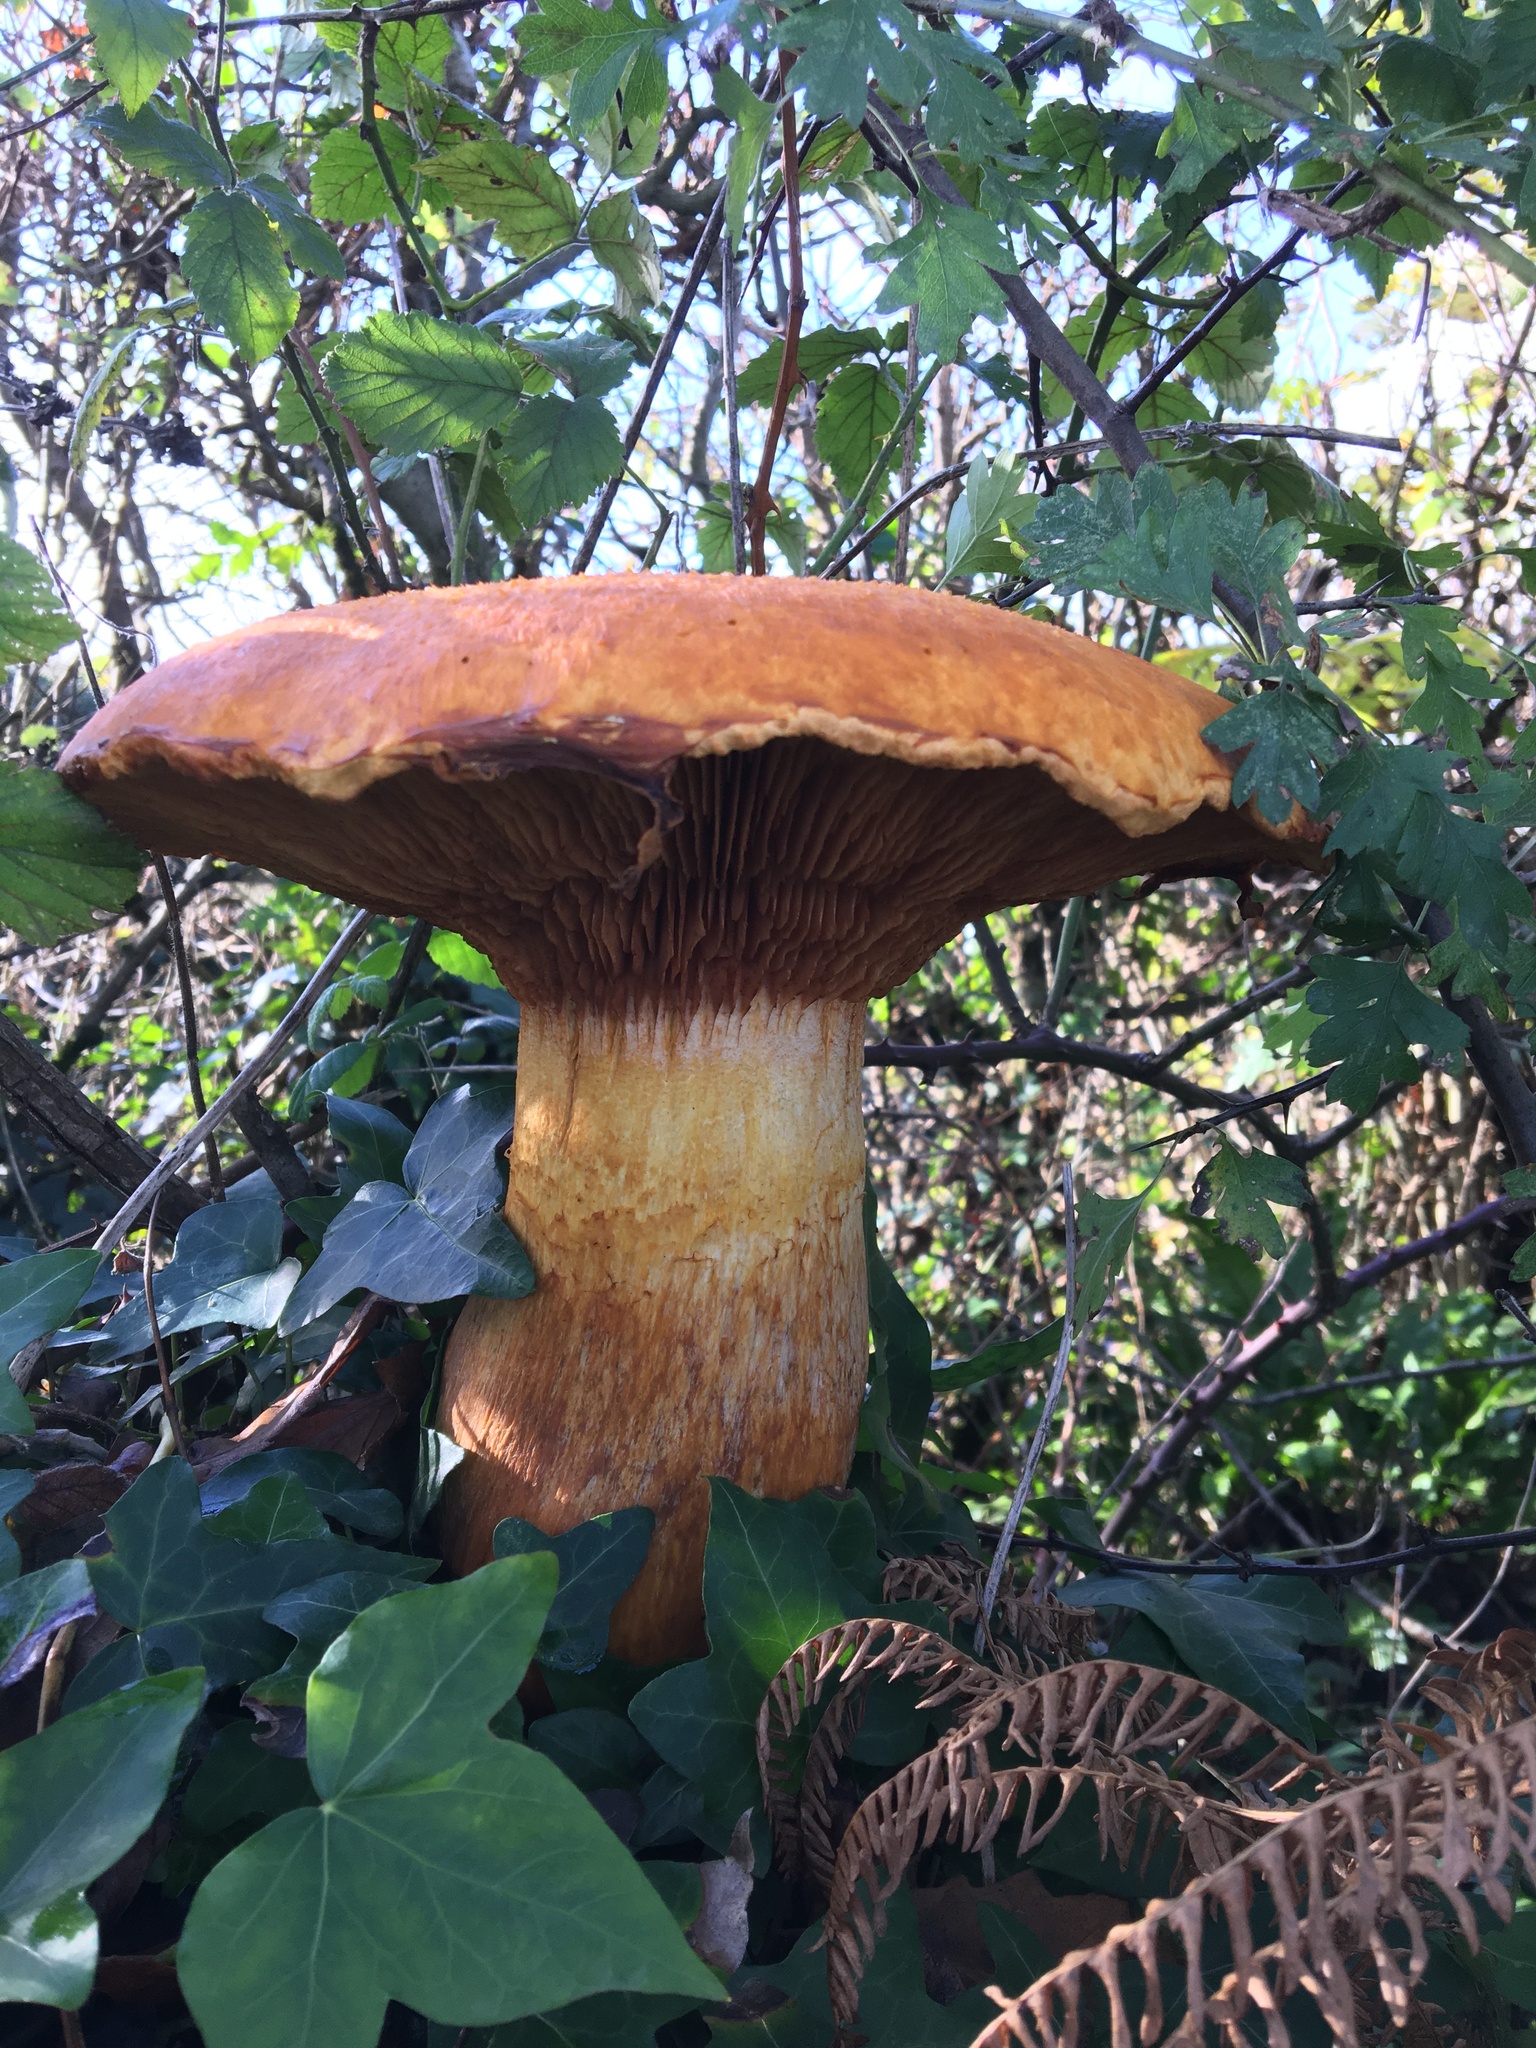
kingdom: Fungi
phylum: Basidiomycota
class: Agaricomycetes
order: Agaricales
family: Hymenogastraceae
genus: Gymnopilus
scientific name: Gymnopilus junonius
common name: Spectacular rustgill
